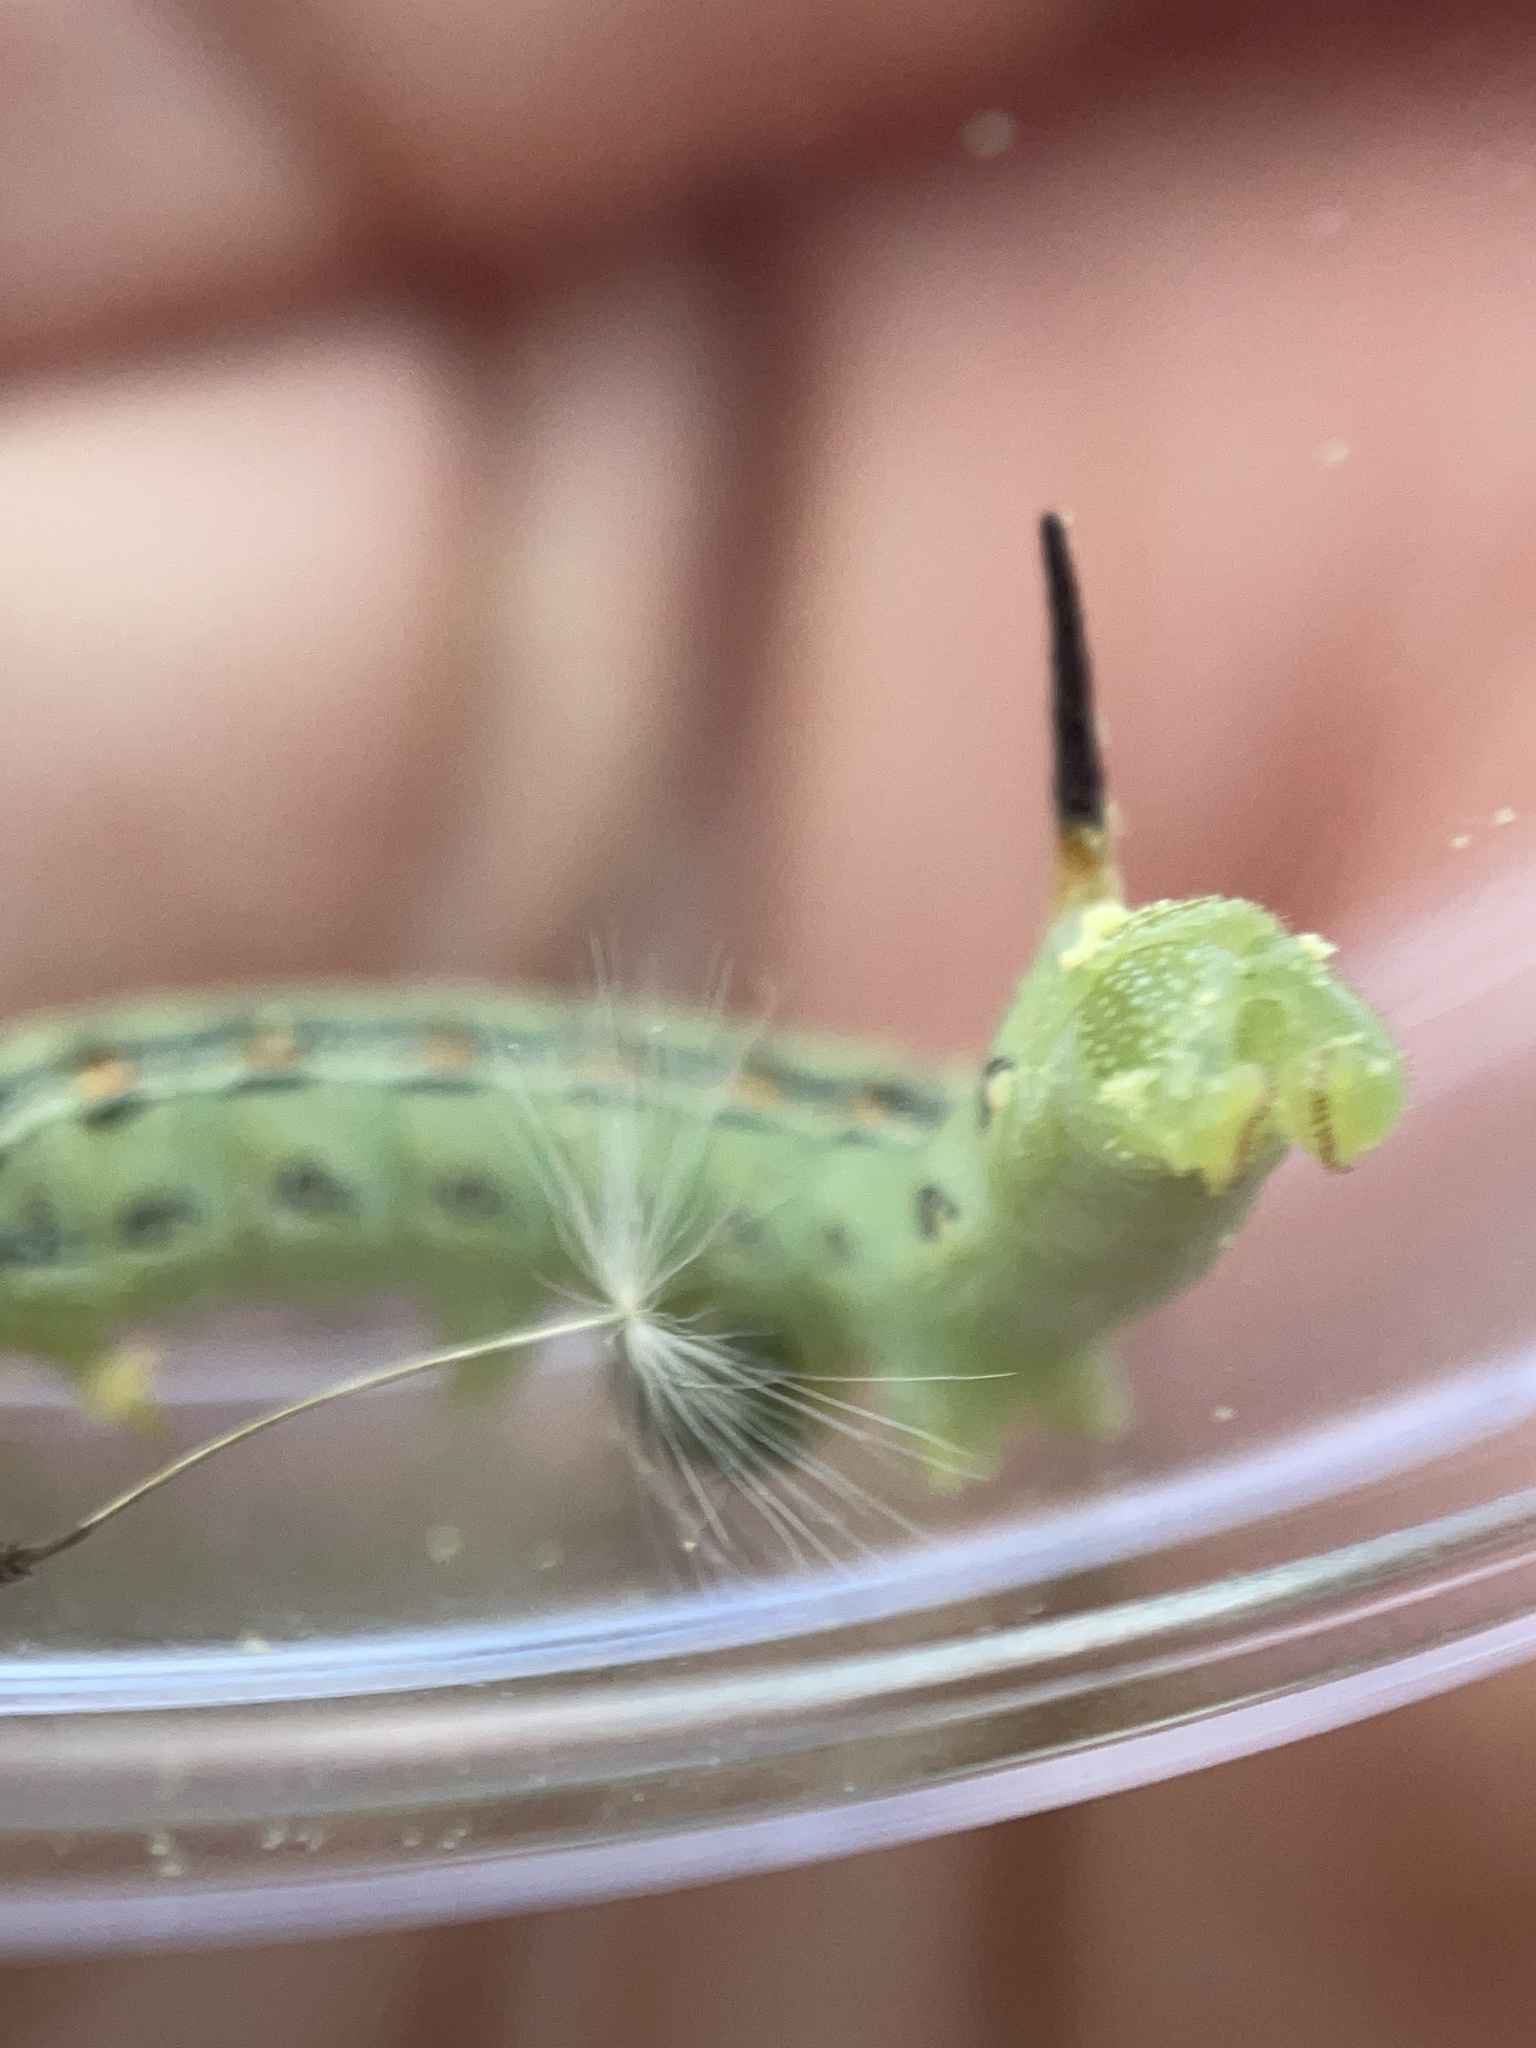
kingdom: Animalia
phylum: Arthropoda
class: Insecta
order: Lepidoptera
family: Sphingidae
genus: Hyles
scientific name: Hyles lineata
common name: White-lined sphinx
